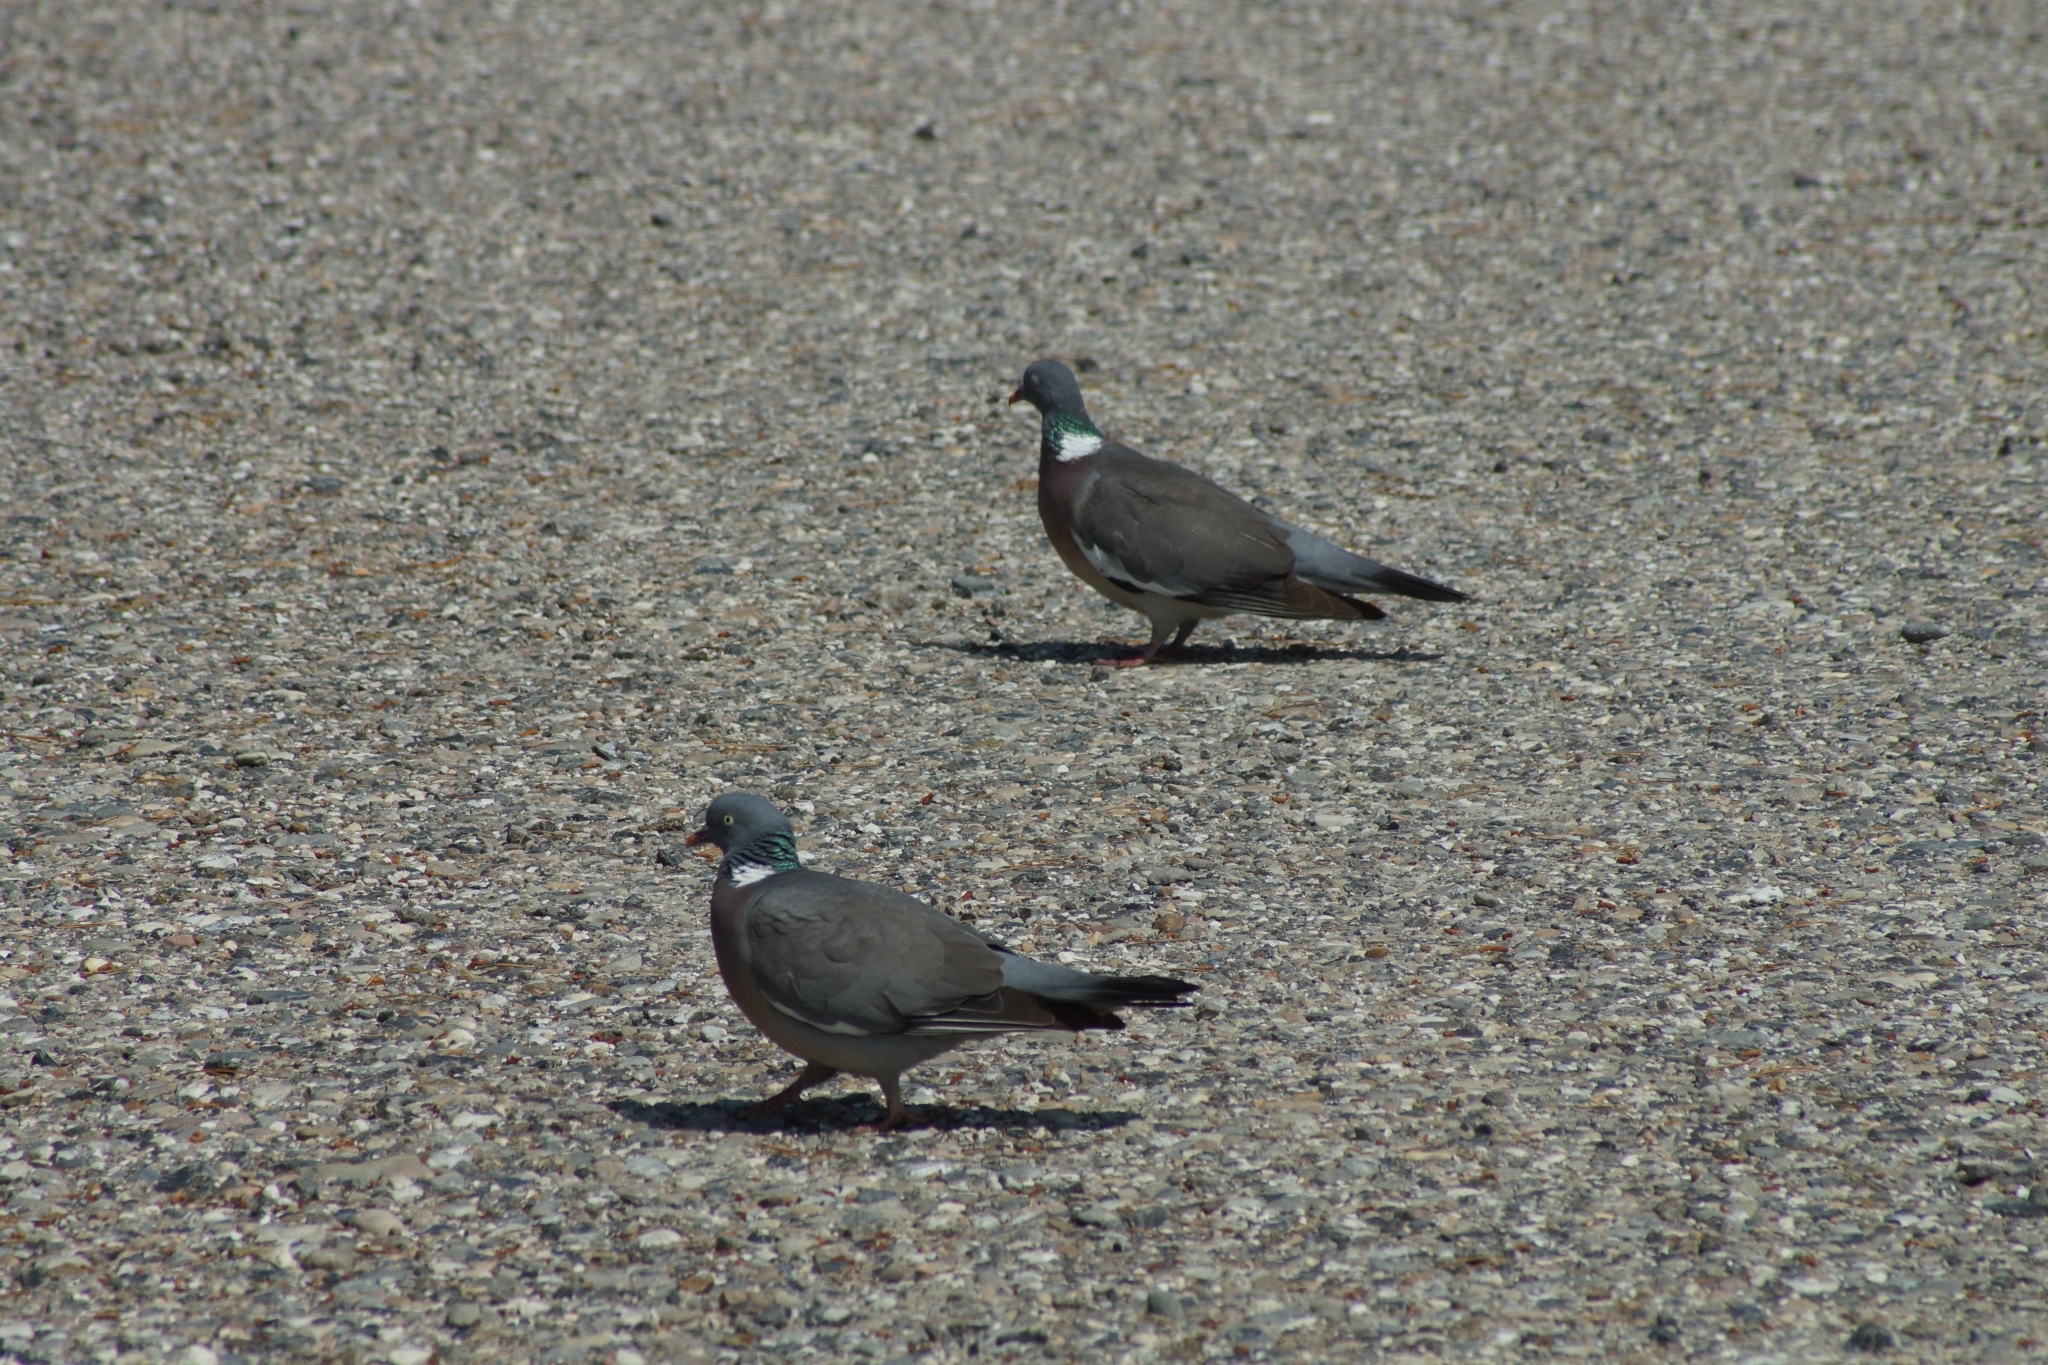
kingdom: Animalia
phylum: Chordata
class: Aves
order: Columbiformes
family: Columbidae
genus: Columba
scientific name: Columba palumbus
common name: Common wood pigeon
